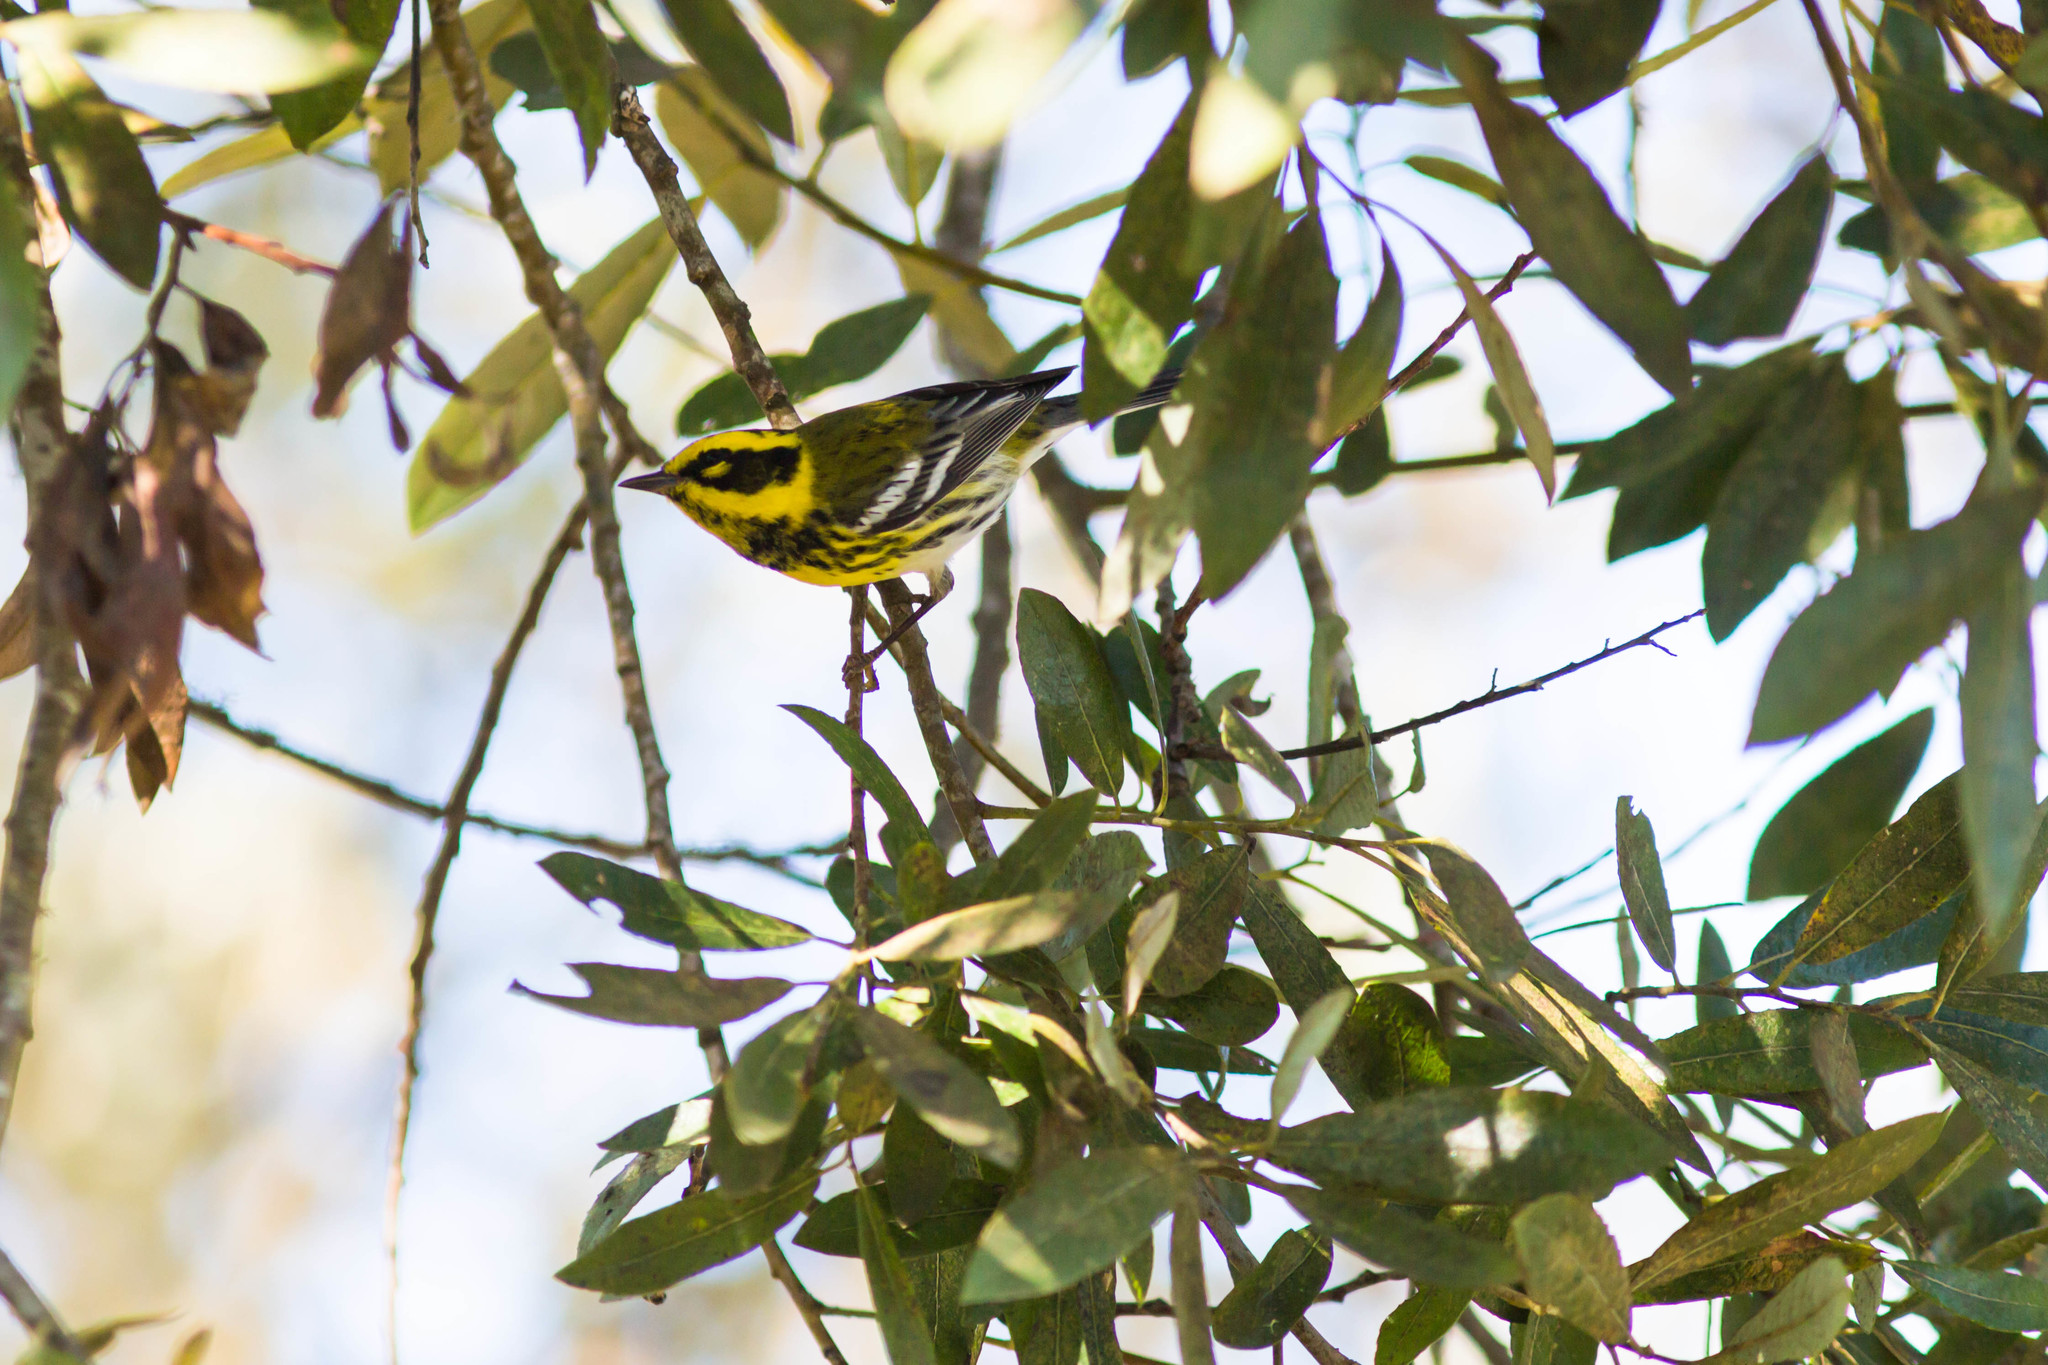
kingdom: Animalia
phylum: Chordata
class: Aves
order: Passeriformes
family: Parulidae
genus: Setophaga
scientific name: Setophaga townsendi
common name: Townsend's warbler
